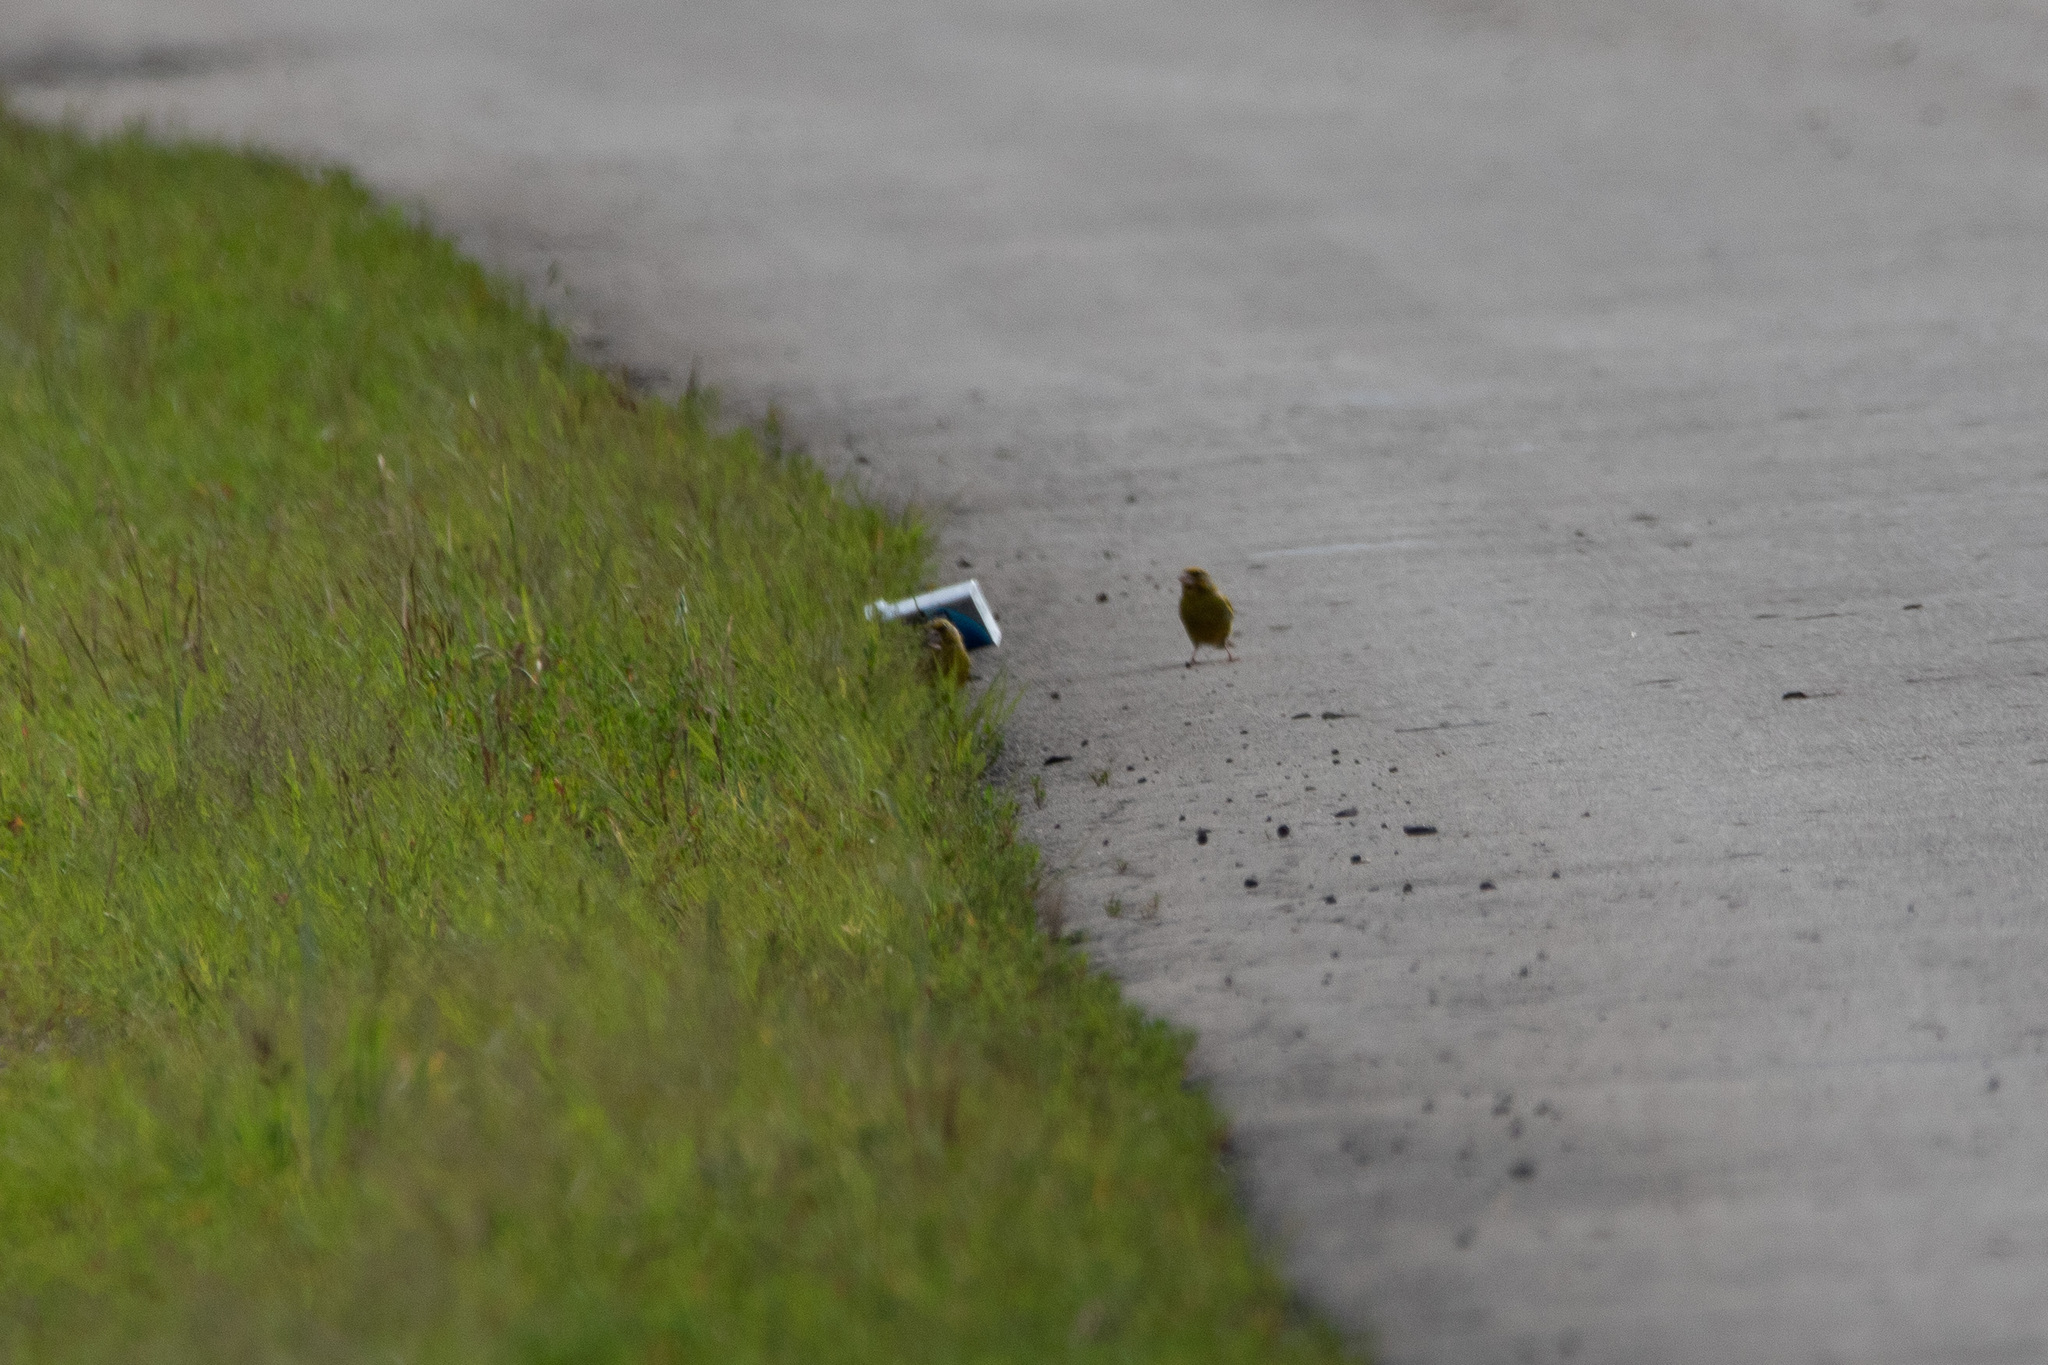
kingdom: Plantae
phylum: Tracheophyta
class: Liliopsida
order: Poales
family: Poaceae
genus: Chloris
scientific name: Chloris chloris
